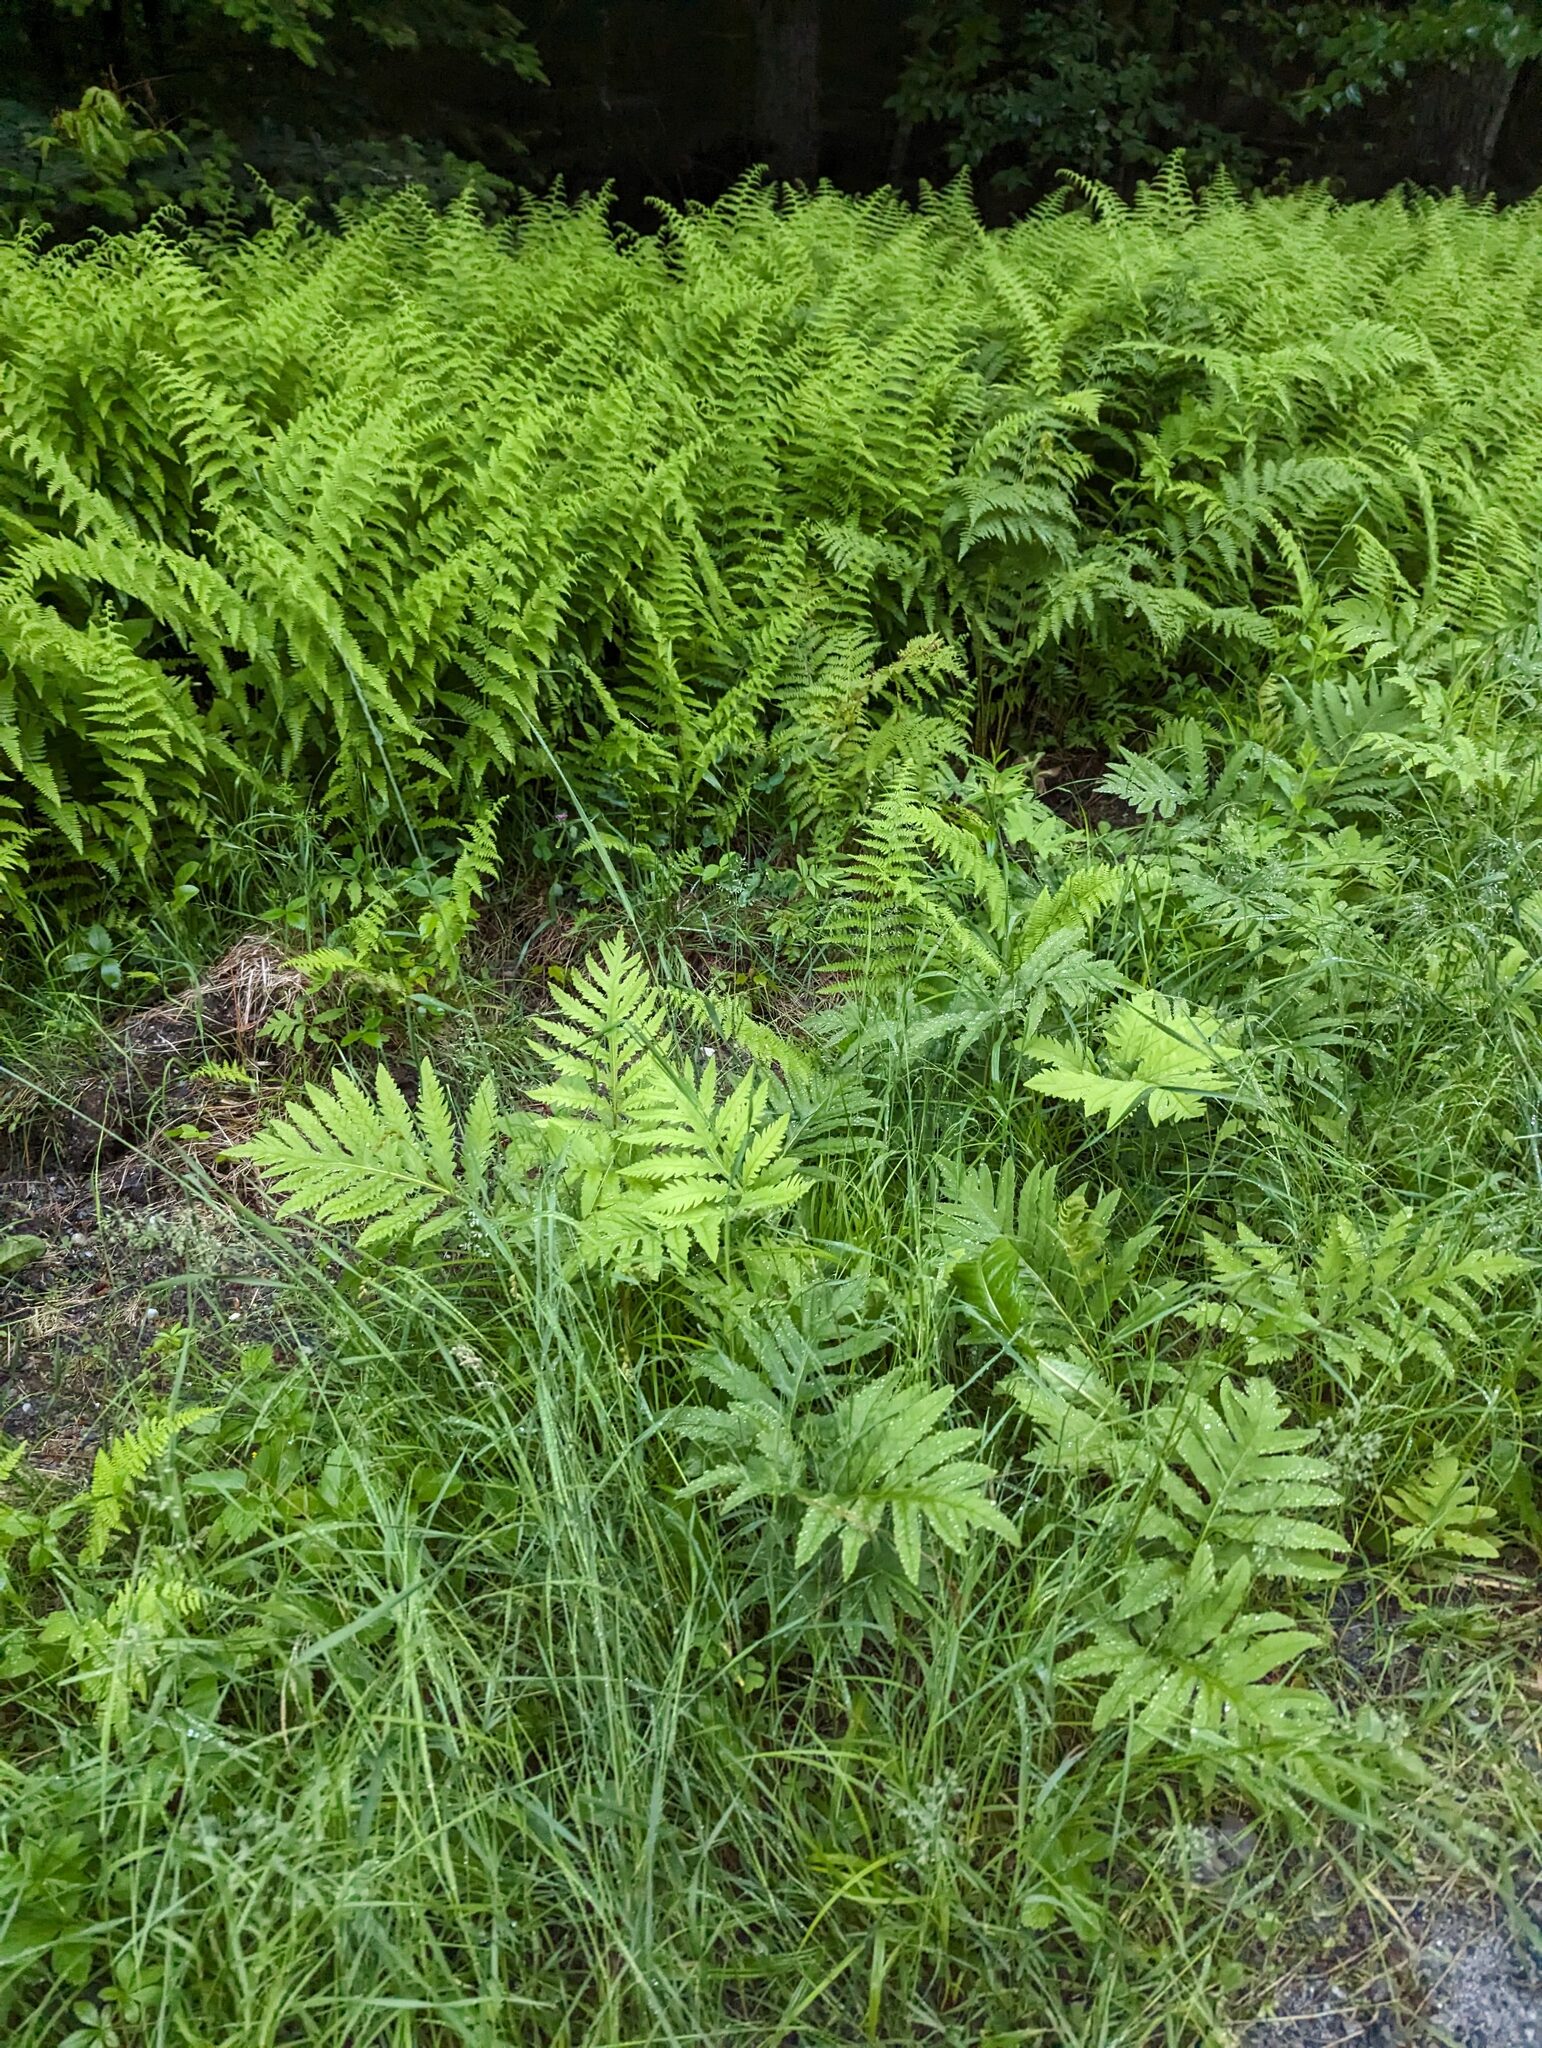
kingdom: Plantae
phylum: Tracheophyta
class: Polypodiopsida
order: Polypodiales
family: Onocleaceae
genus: Onoclea
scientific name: Onoclea sensibilis
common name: Sensitive fern
